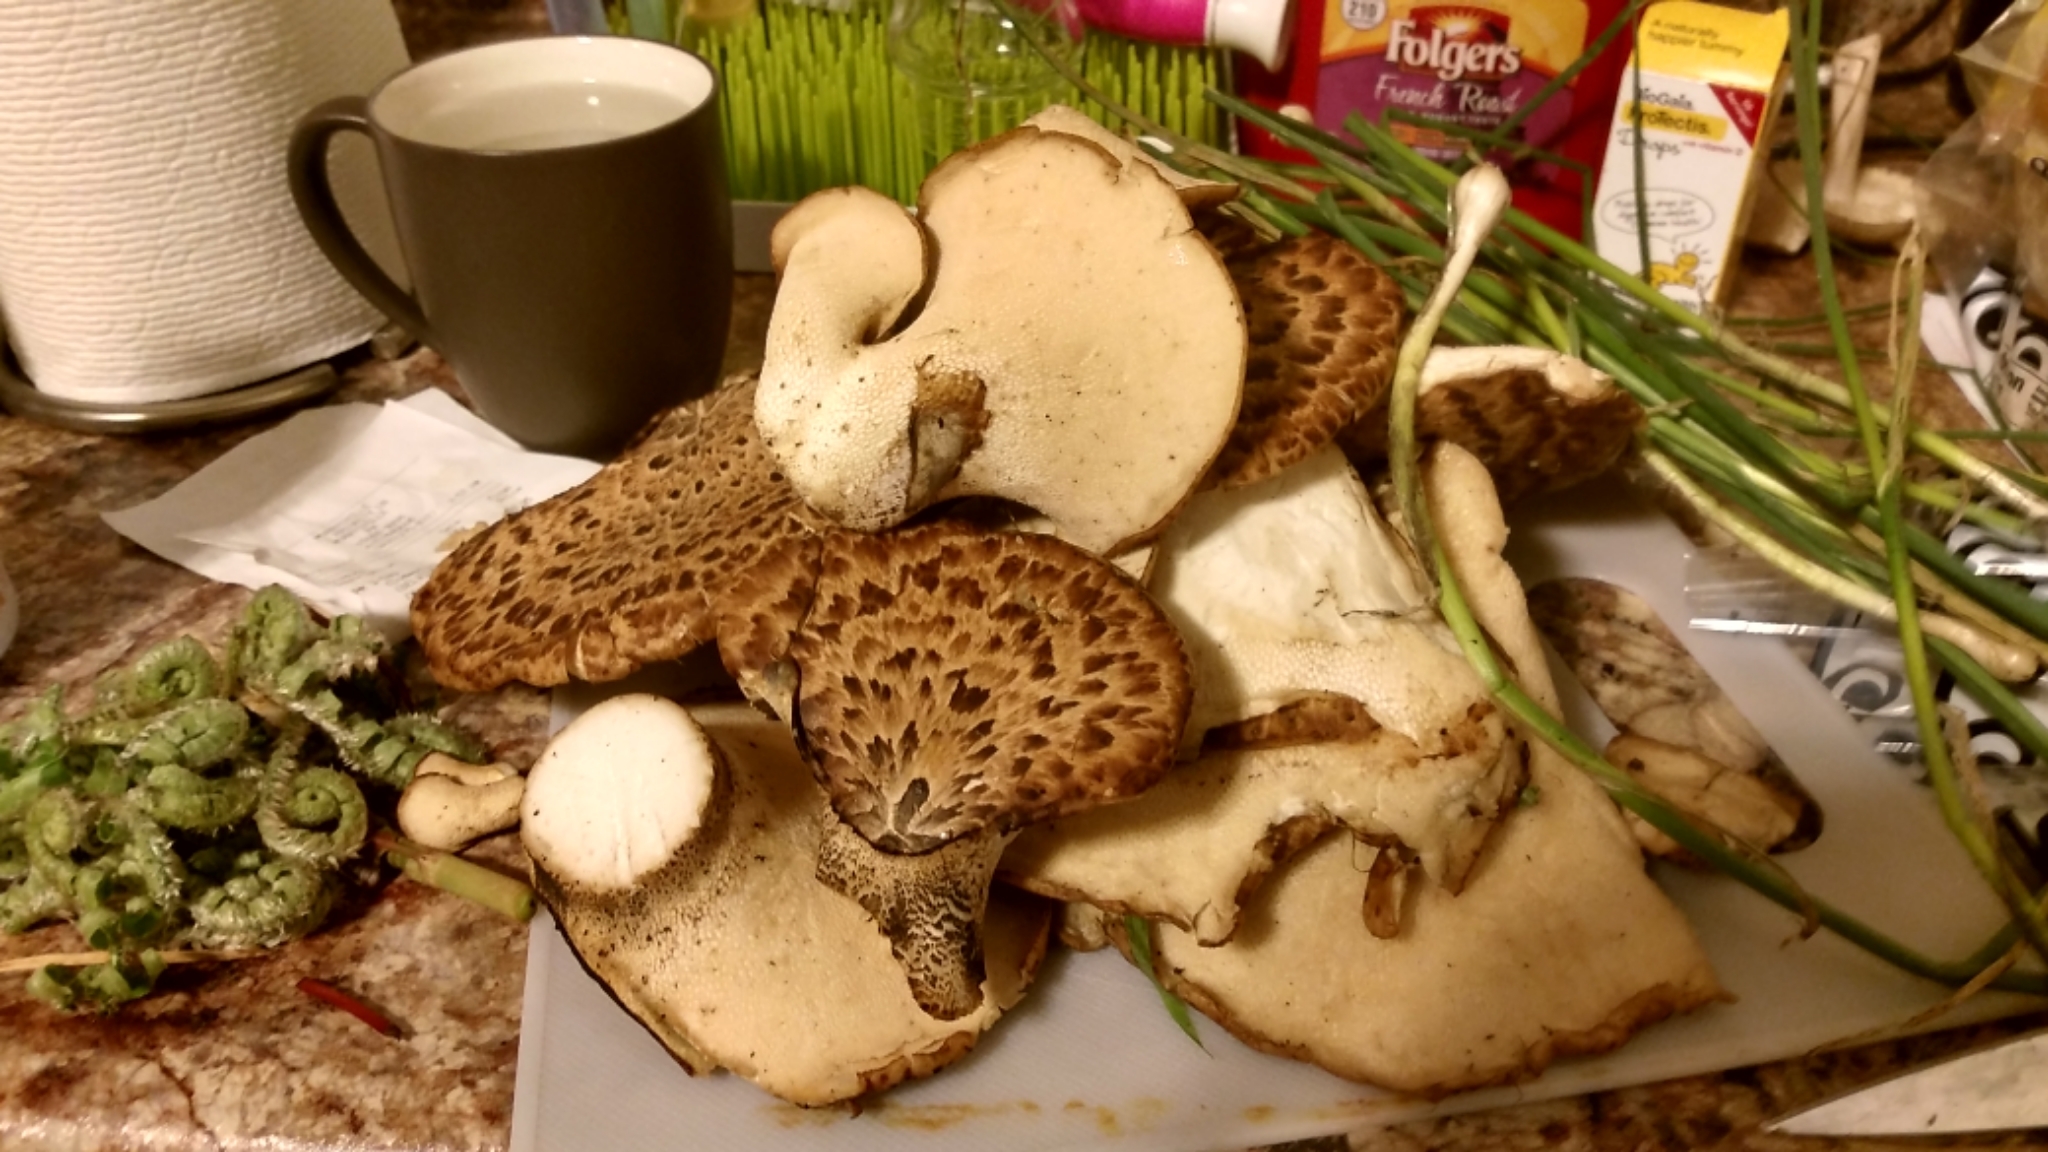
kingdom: Fungi
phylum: Basidiomycota
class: Agaricomycetes
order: Polyporales
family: Polyporaceae
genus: Cerioporus
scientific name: Cerioporus squamosus
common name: Dryad's saddle
